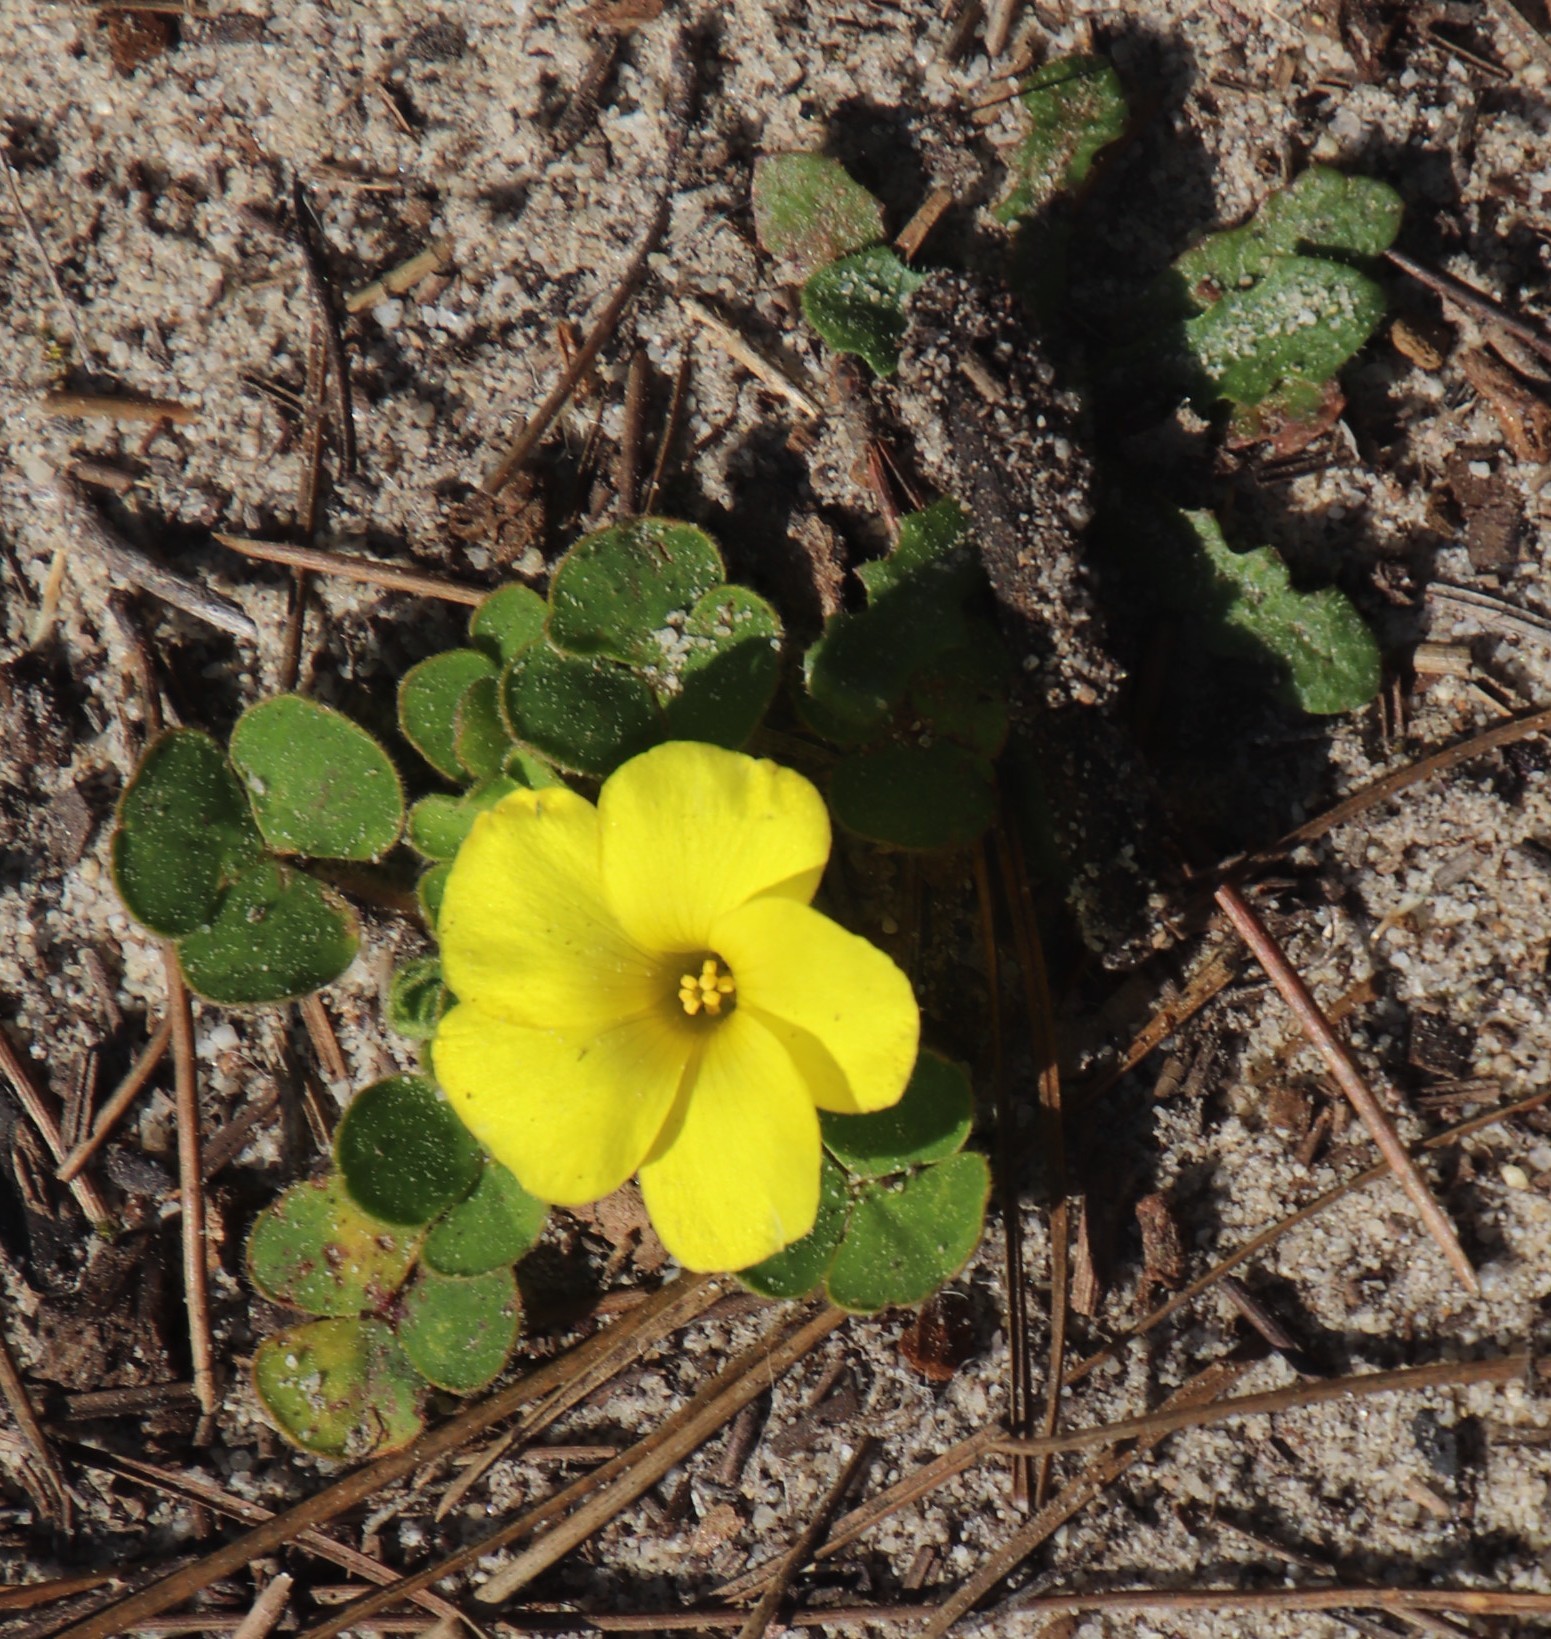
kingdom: Plantae
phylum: Tracheophyta
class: Magnoliopsida
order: Oxalidales
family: Oxalidaceae
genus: Oxalis
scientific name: Oxalis luteola
